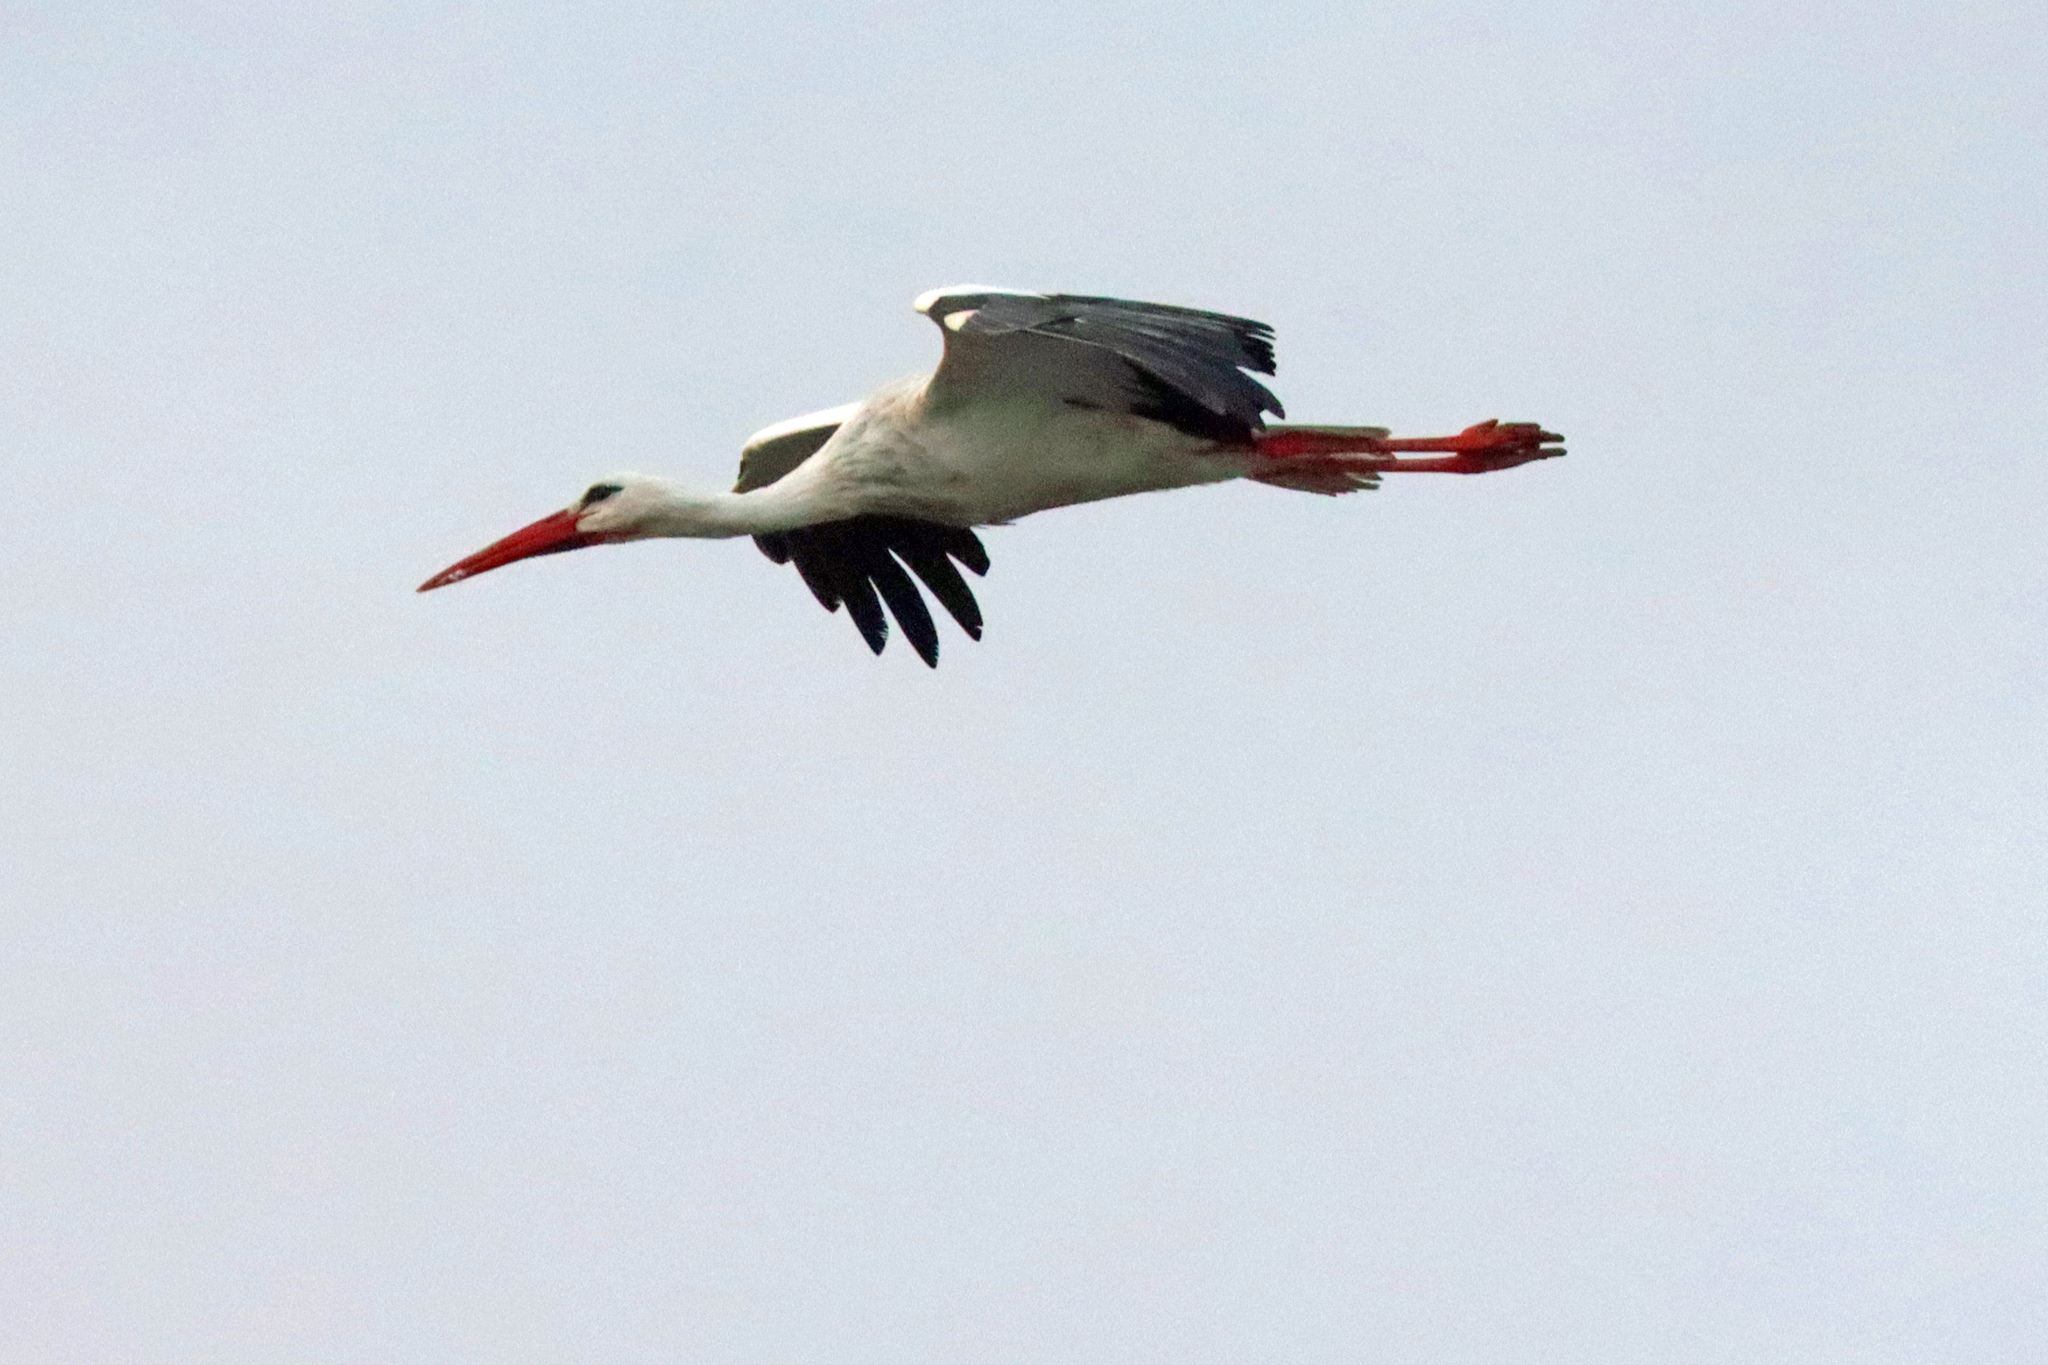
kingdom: Animalia
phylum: Chordata
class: Aves
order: Ciconiiformes
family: Ciconiidae
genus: Ciconia
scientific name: Ciconia ciconia
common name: White stork
